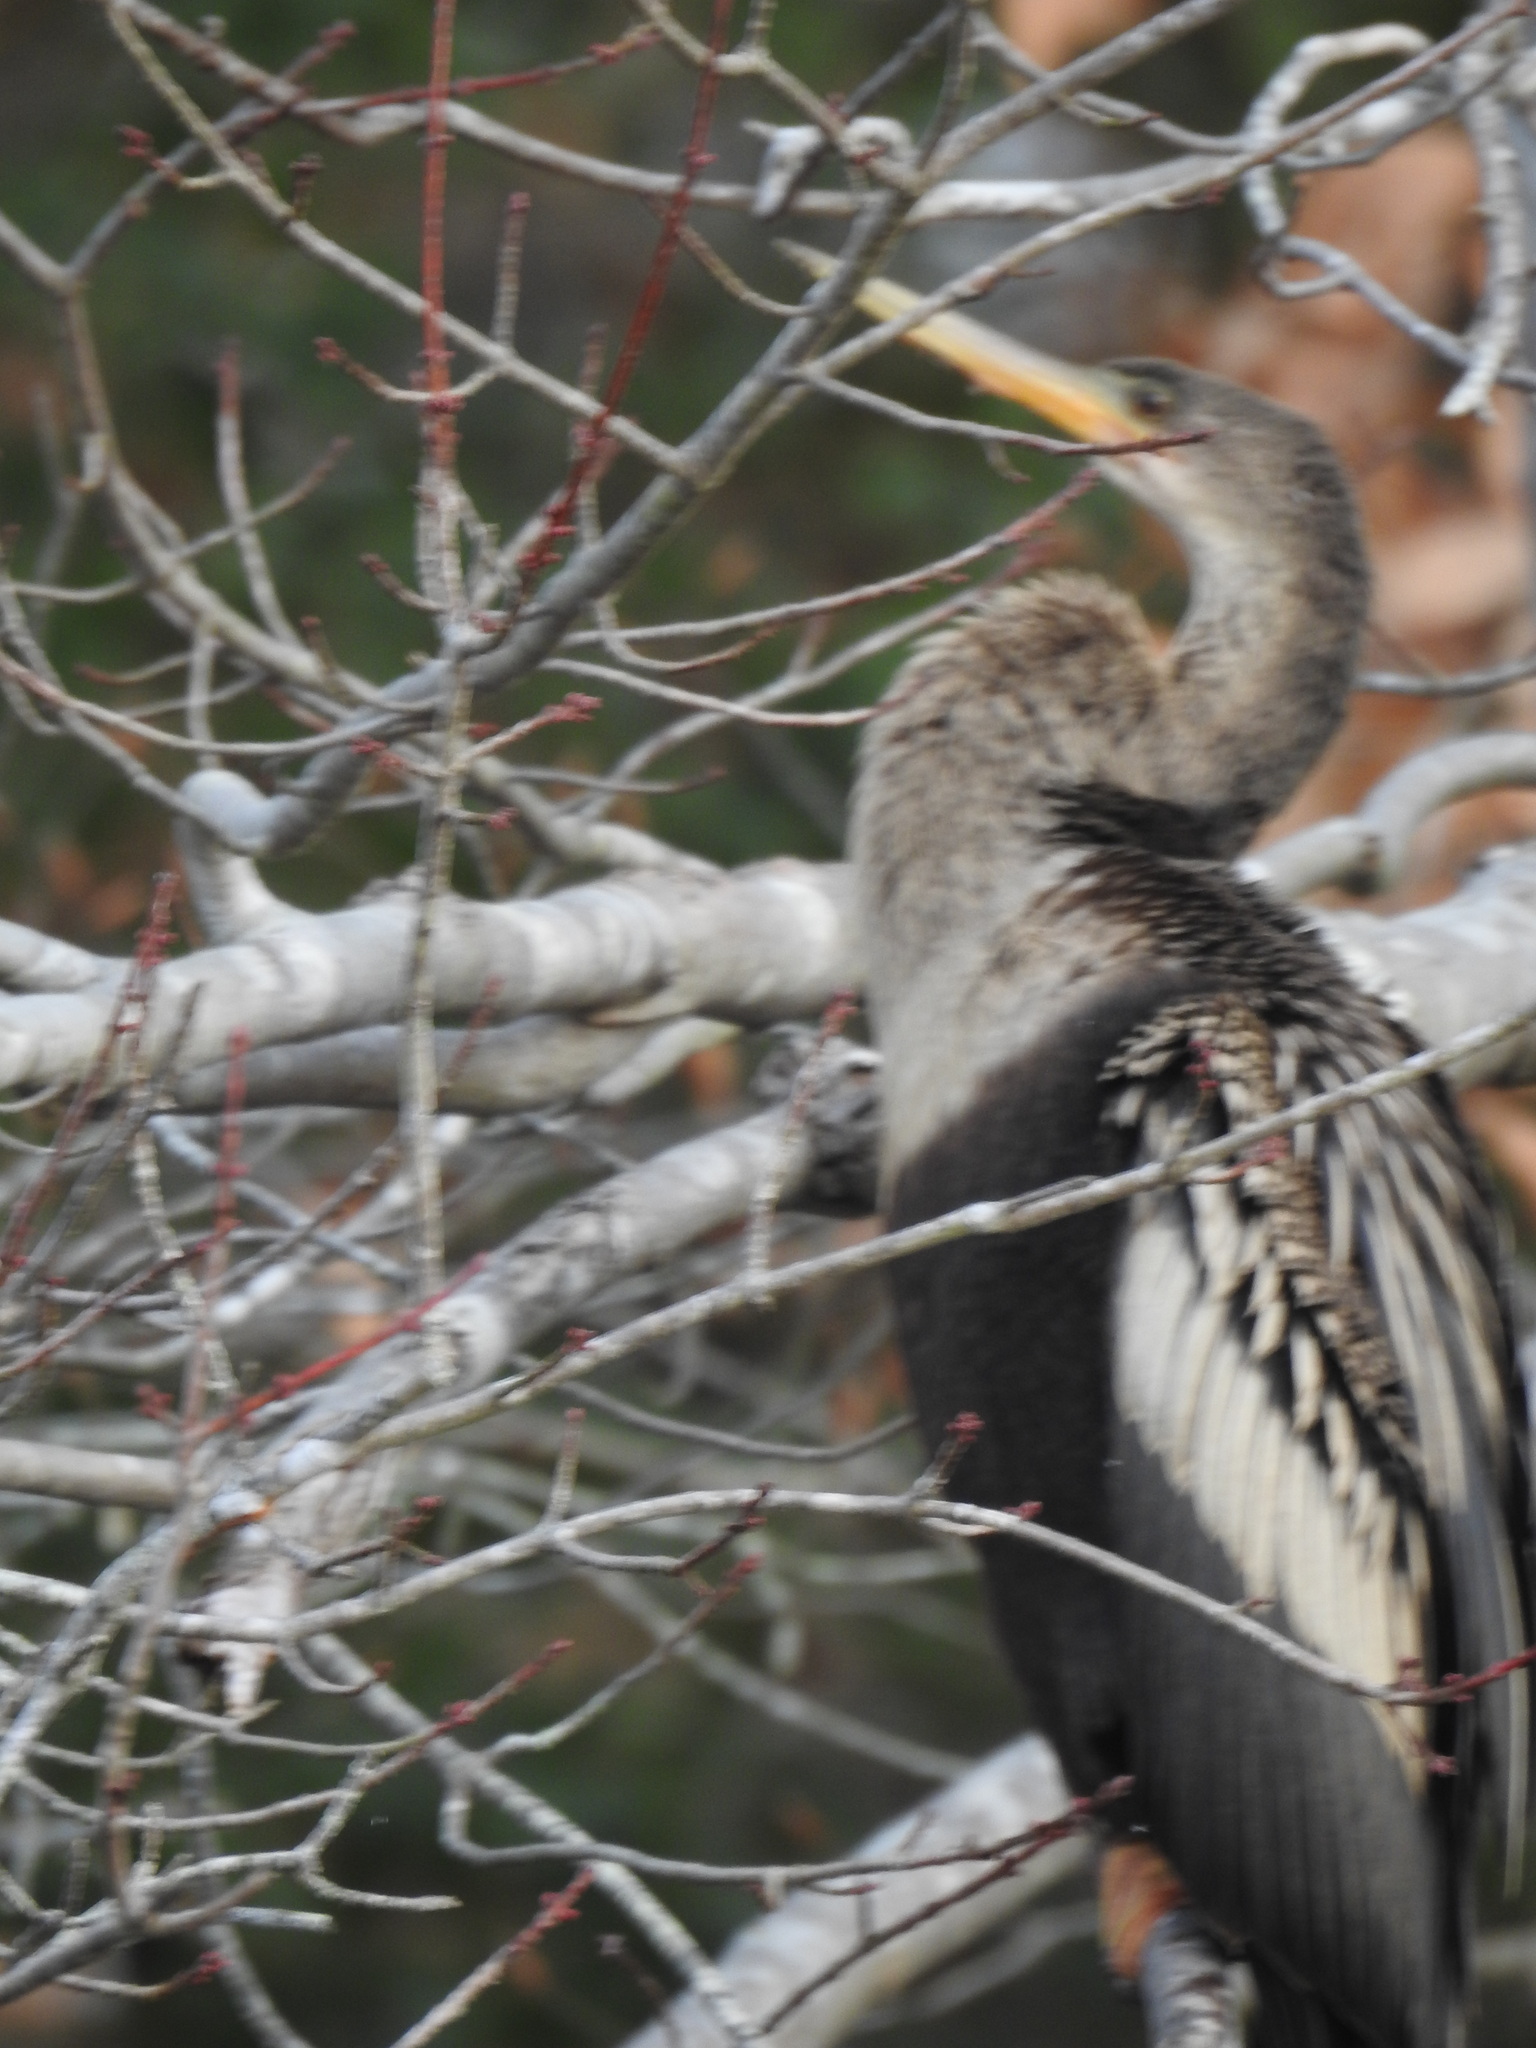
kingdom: Animalia
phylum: Chordata
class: Aves
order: Suliformes
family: Anhingidae
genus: Anhinga
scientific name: Anhinga anhinga
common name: Anhinga
